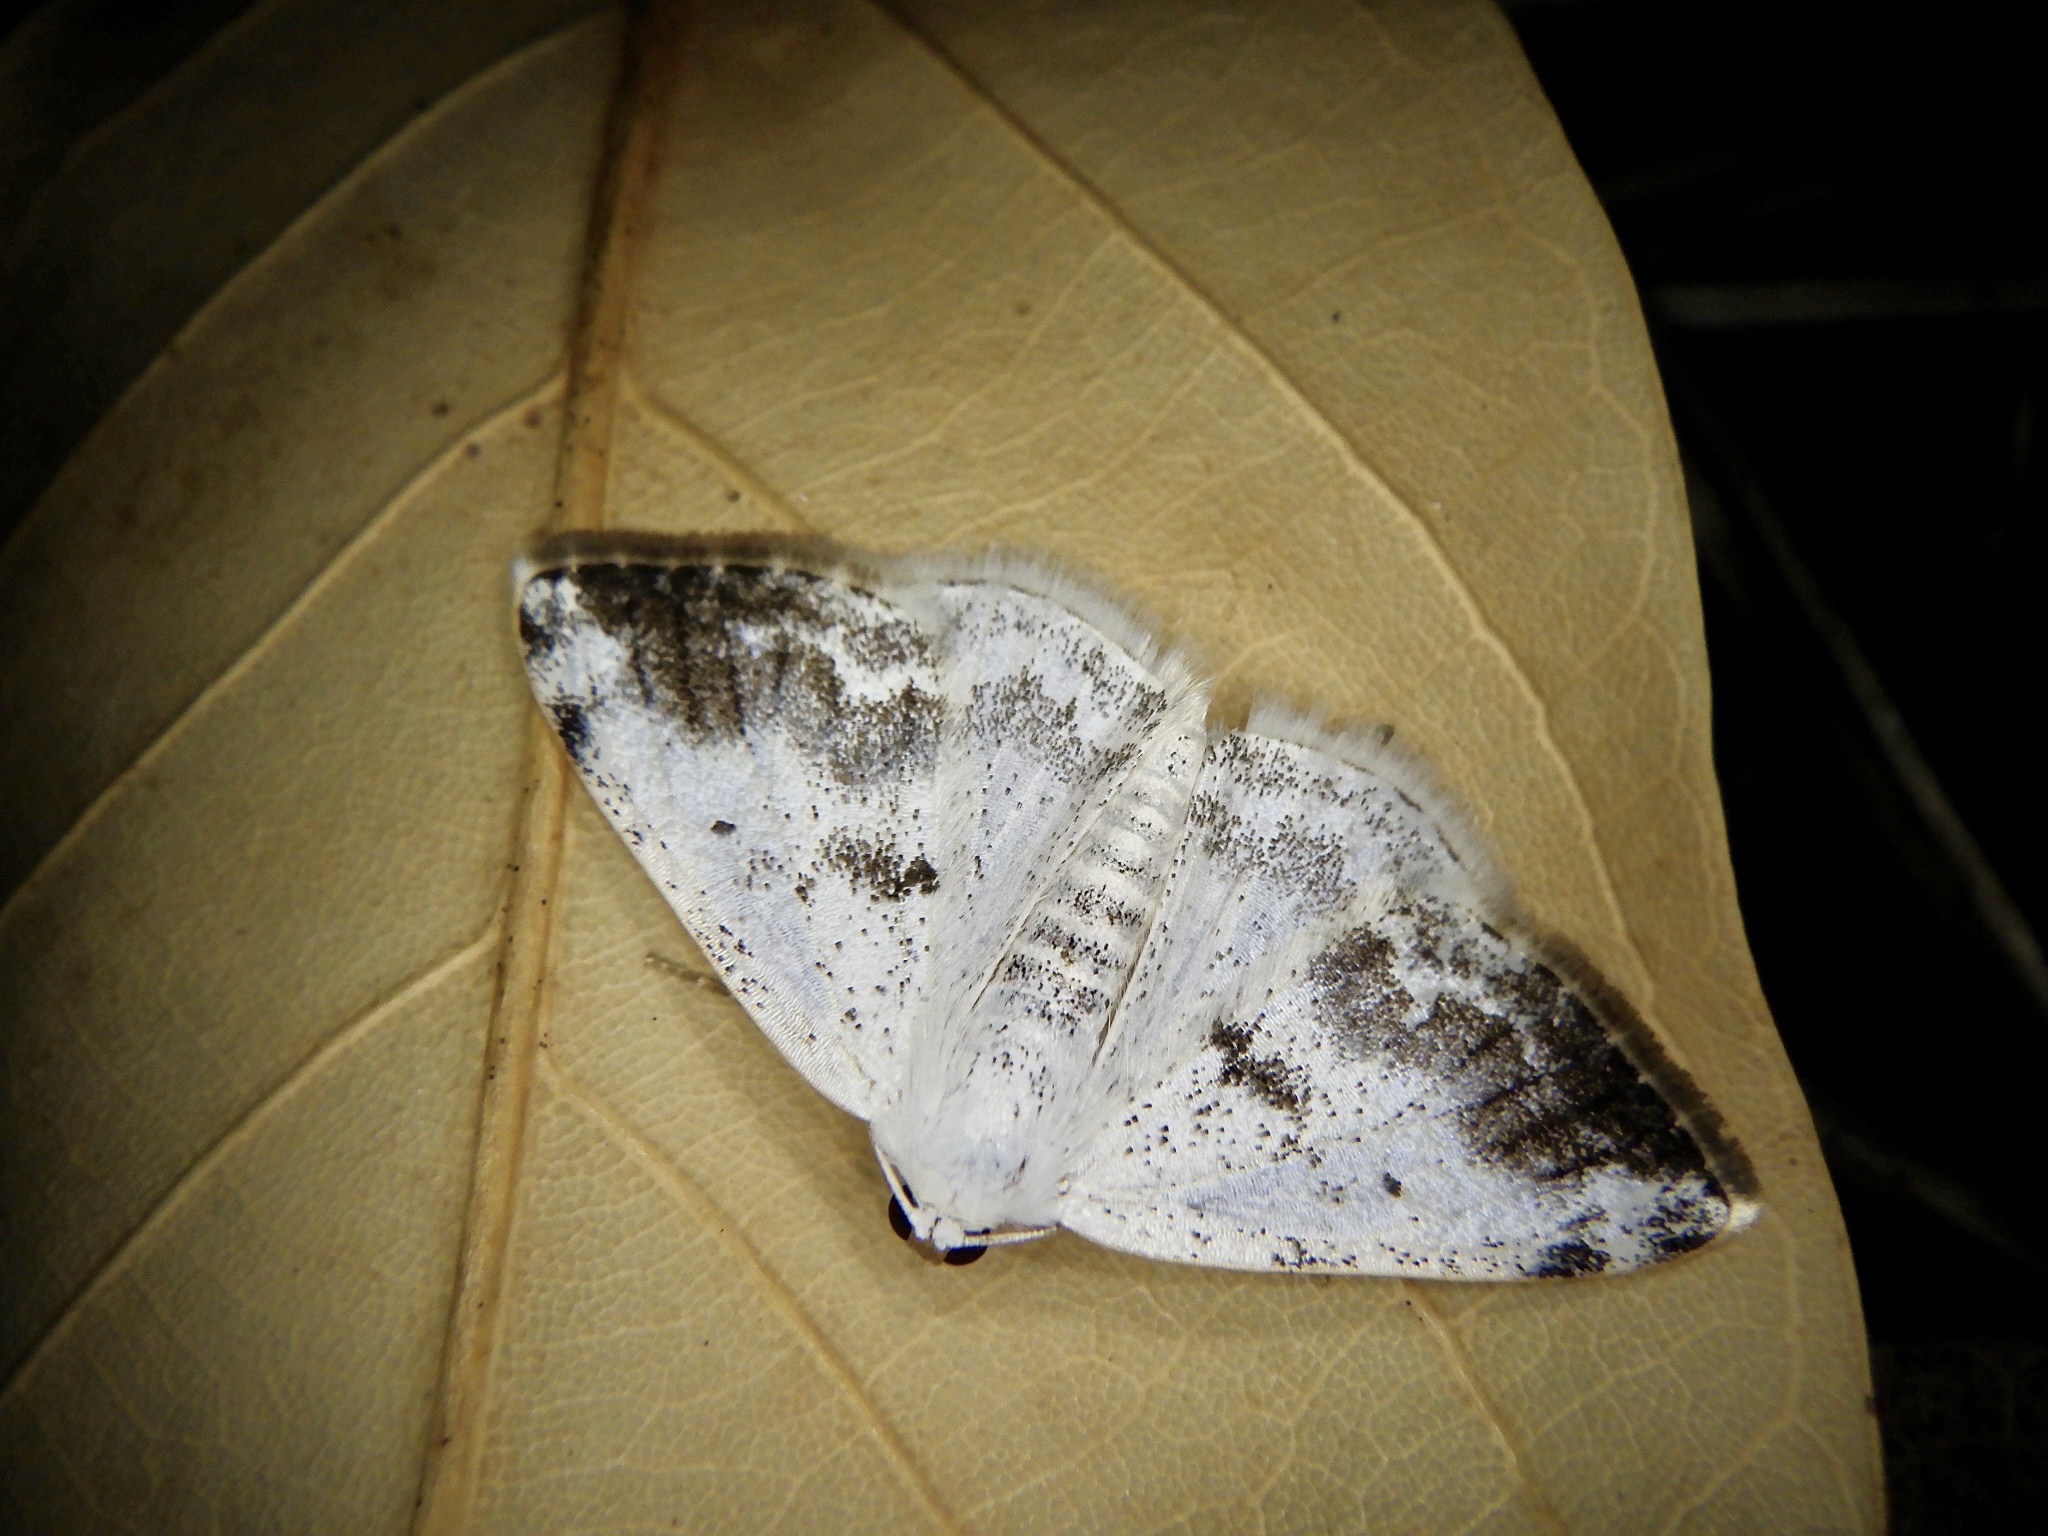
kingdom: Animalia
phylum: Arthropoda
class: Insecta
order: Lepidoptera
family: Geometridae
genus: Lomographa
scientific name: Lomographa temerata
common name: Clouded silver
